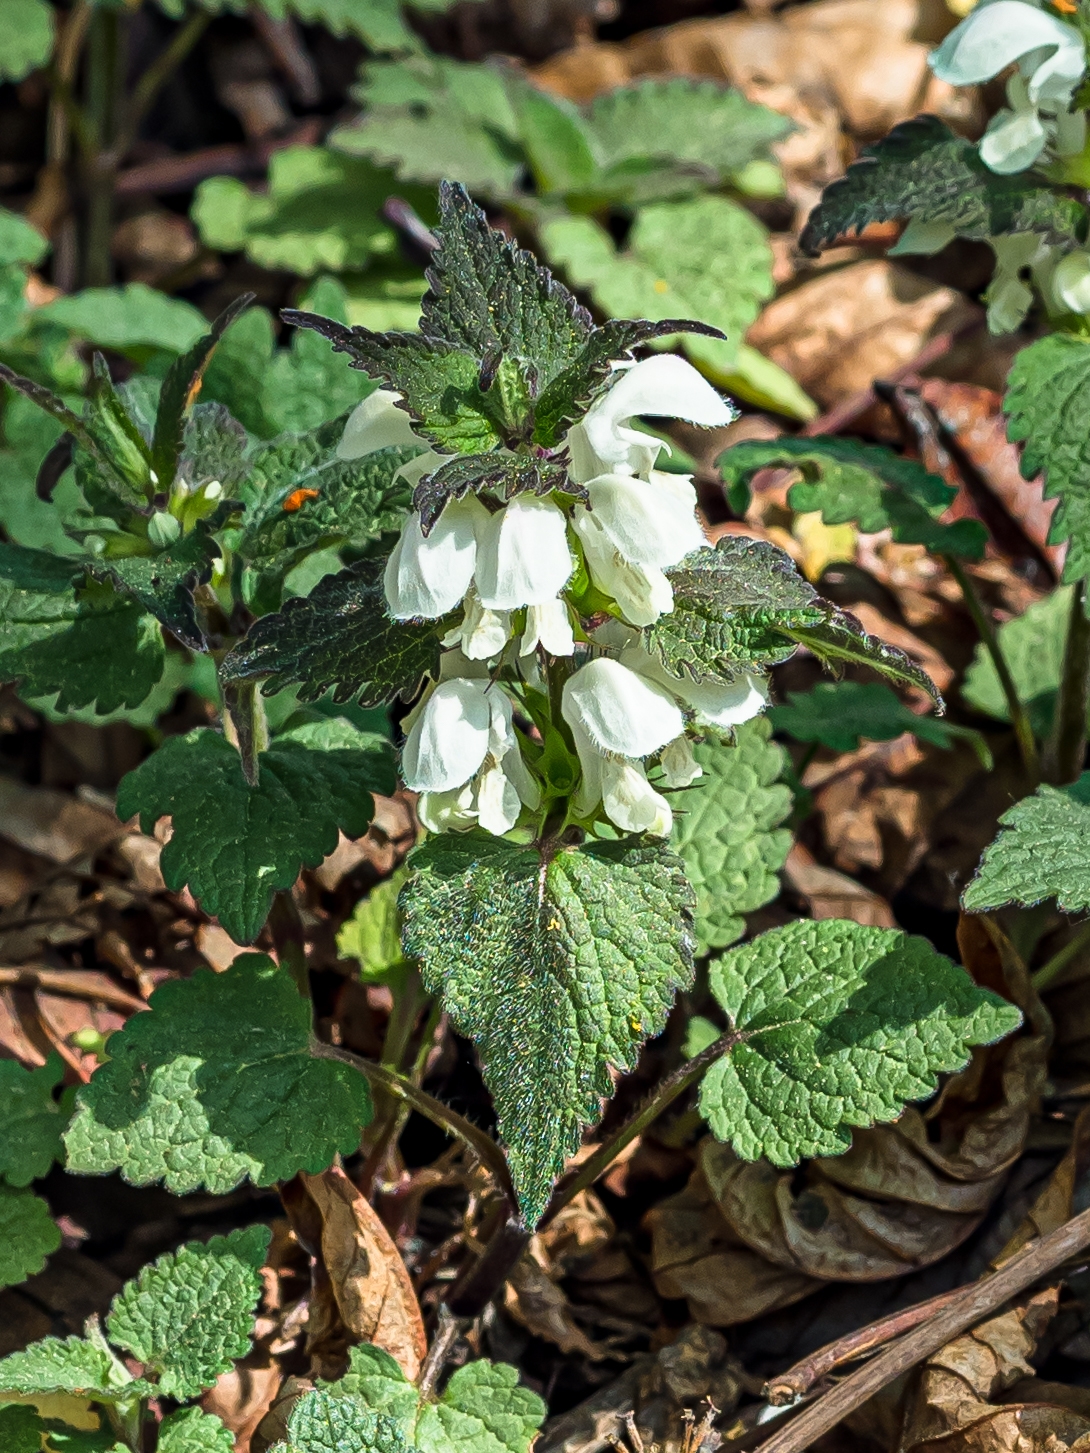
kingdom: Plantae
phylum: Tracheophyta
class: Magnoliopsida
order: Lamiales
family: Lamiaceae
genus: Lamium
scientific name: Lamium album
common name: White dead-nettle
